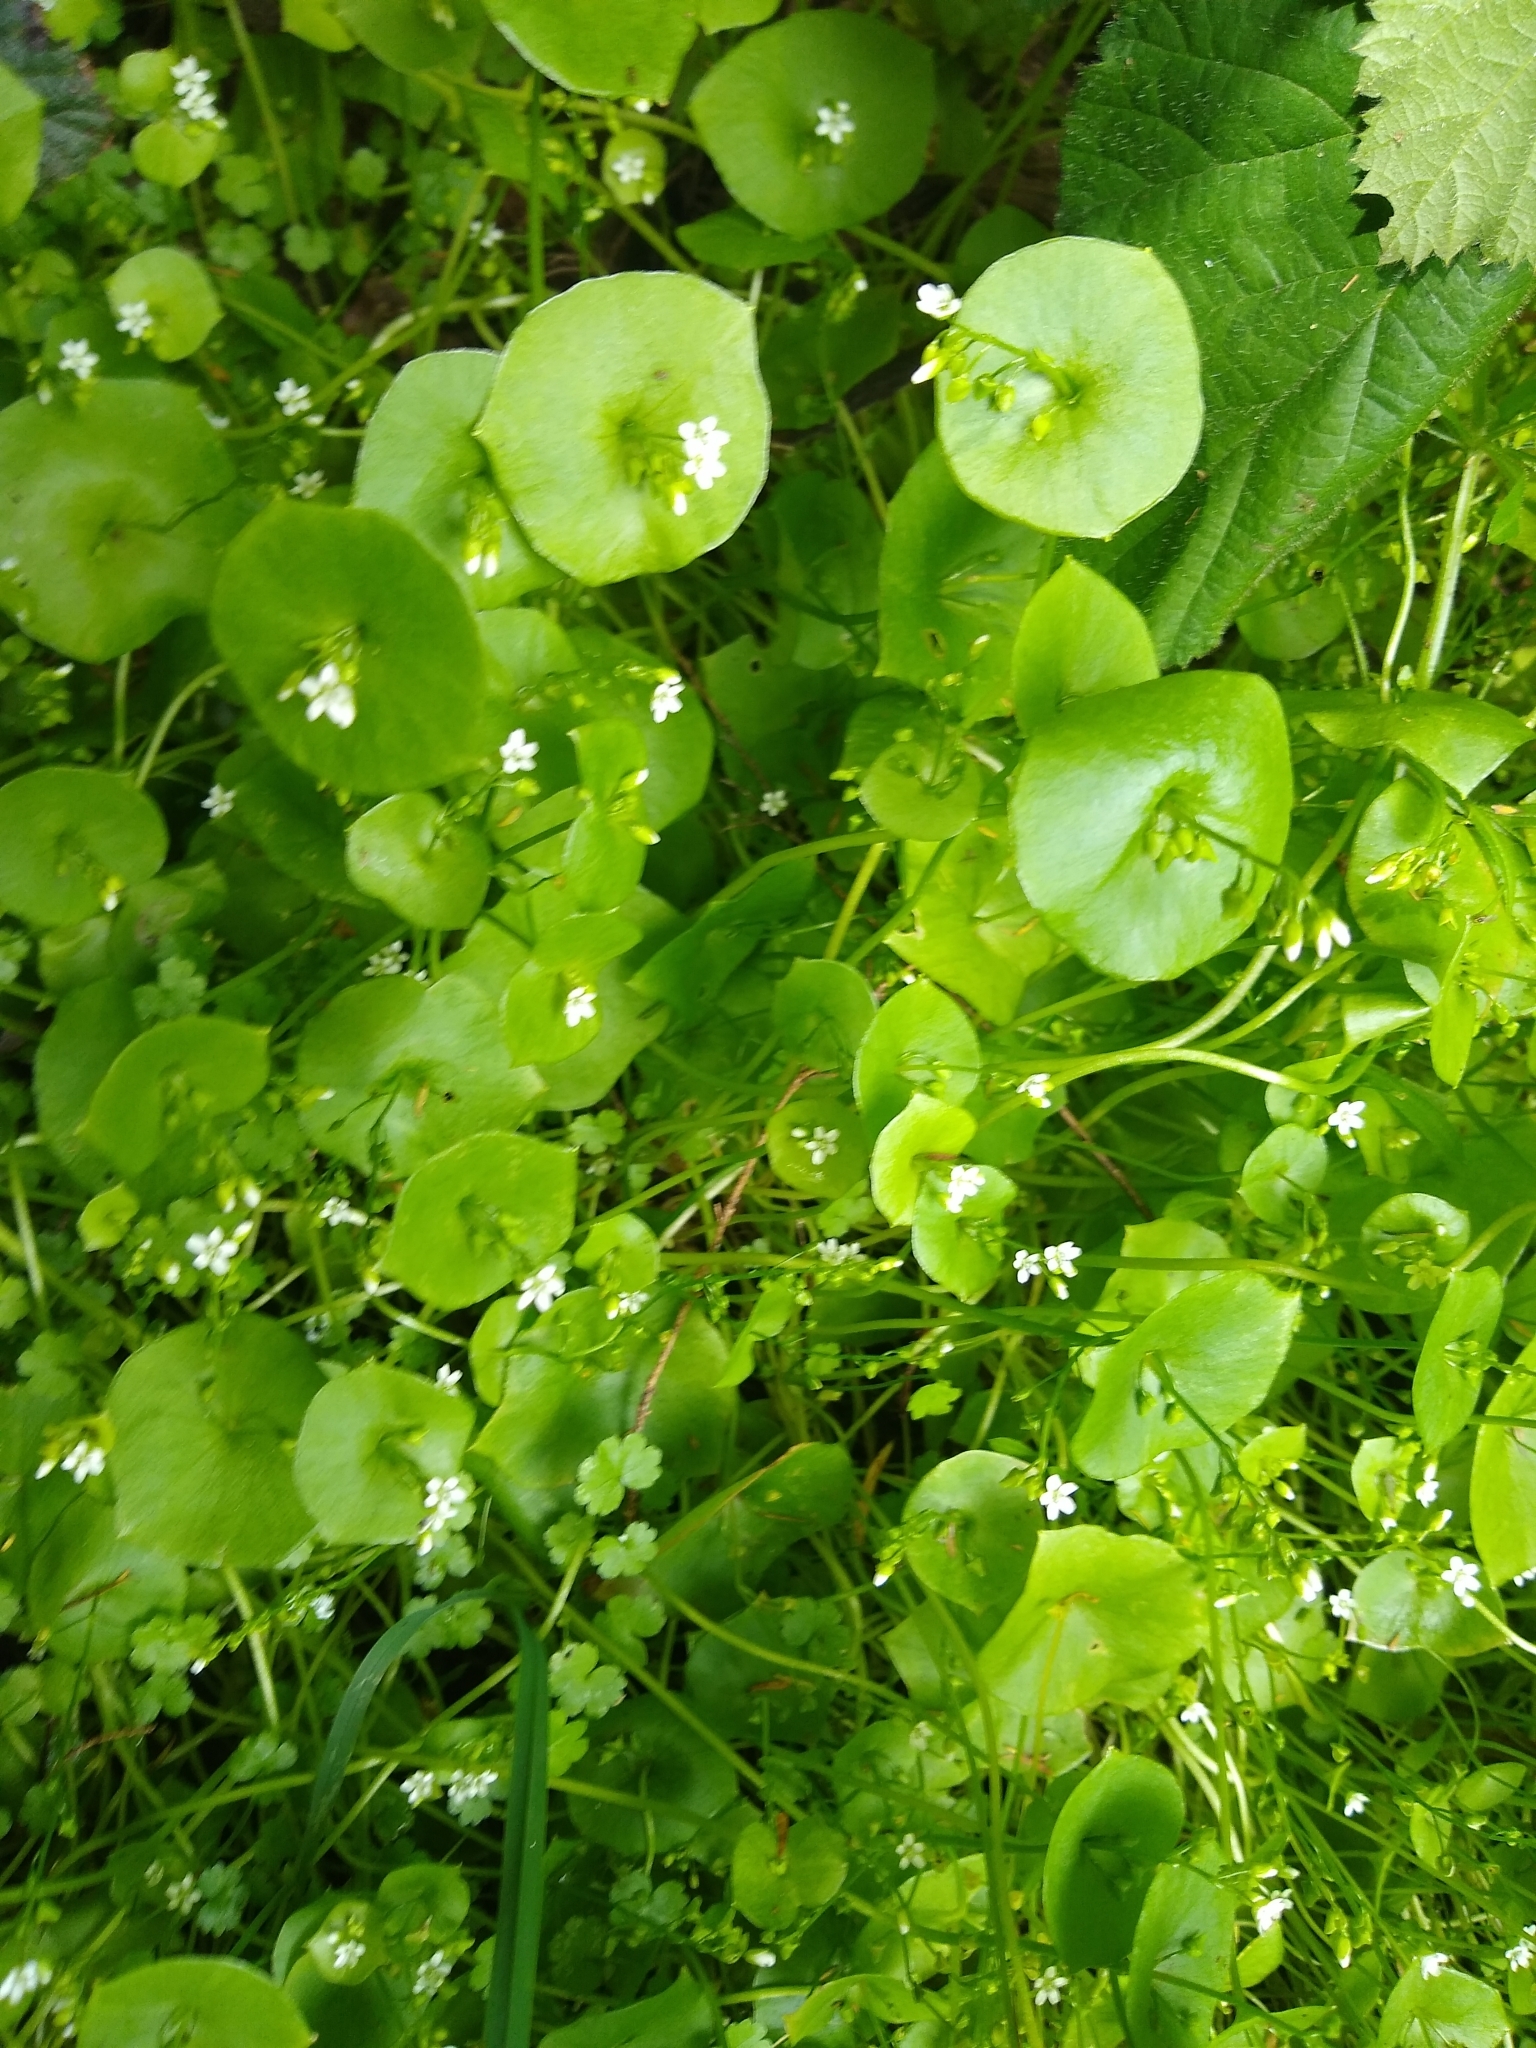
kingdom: Plantae
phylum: Tracheophyta
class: Magnoliopsida
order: Caryophyllales
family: Montiaceae
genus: Claytonia
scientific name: Claytonia perfoliata
